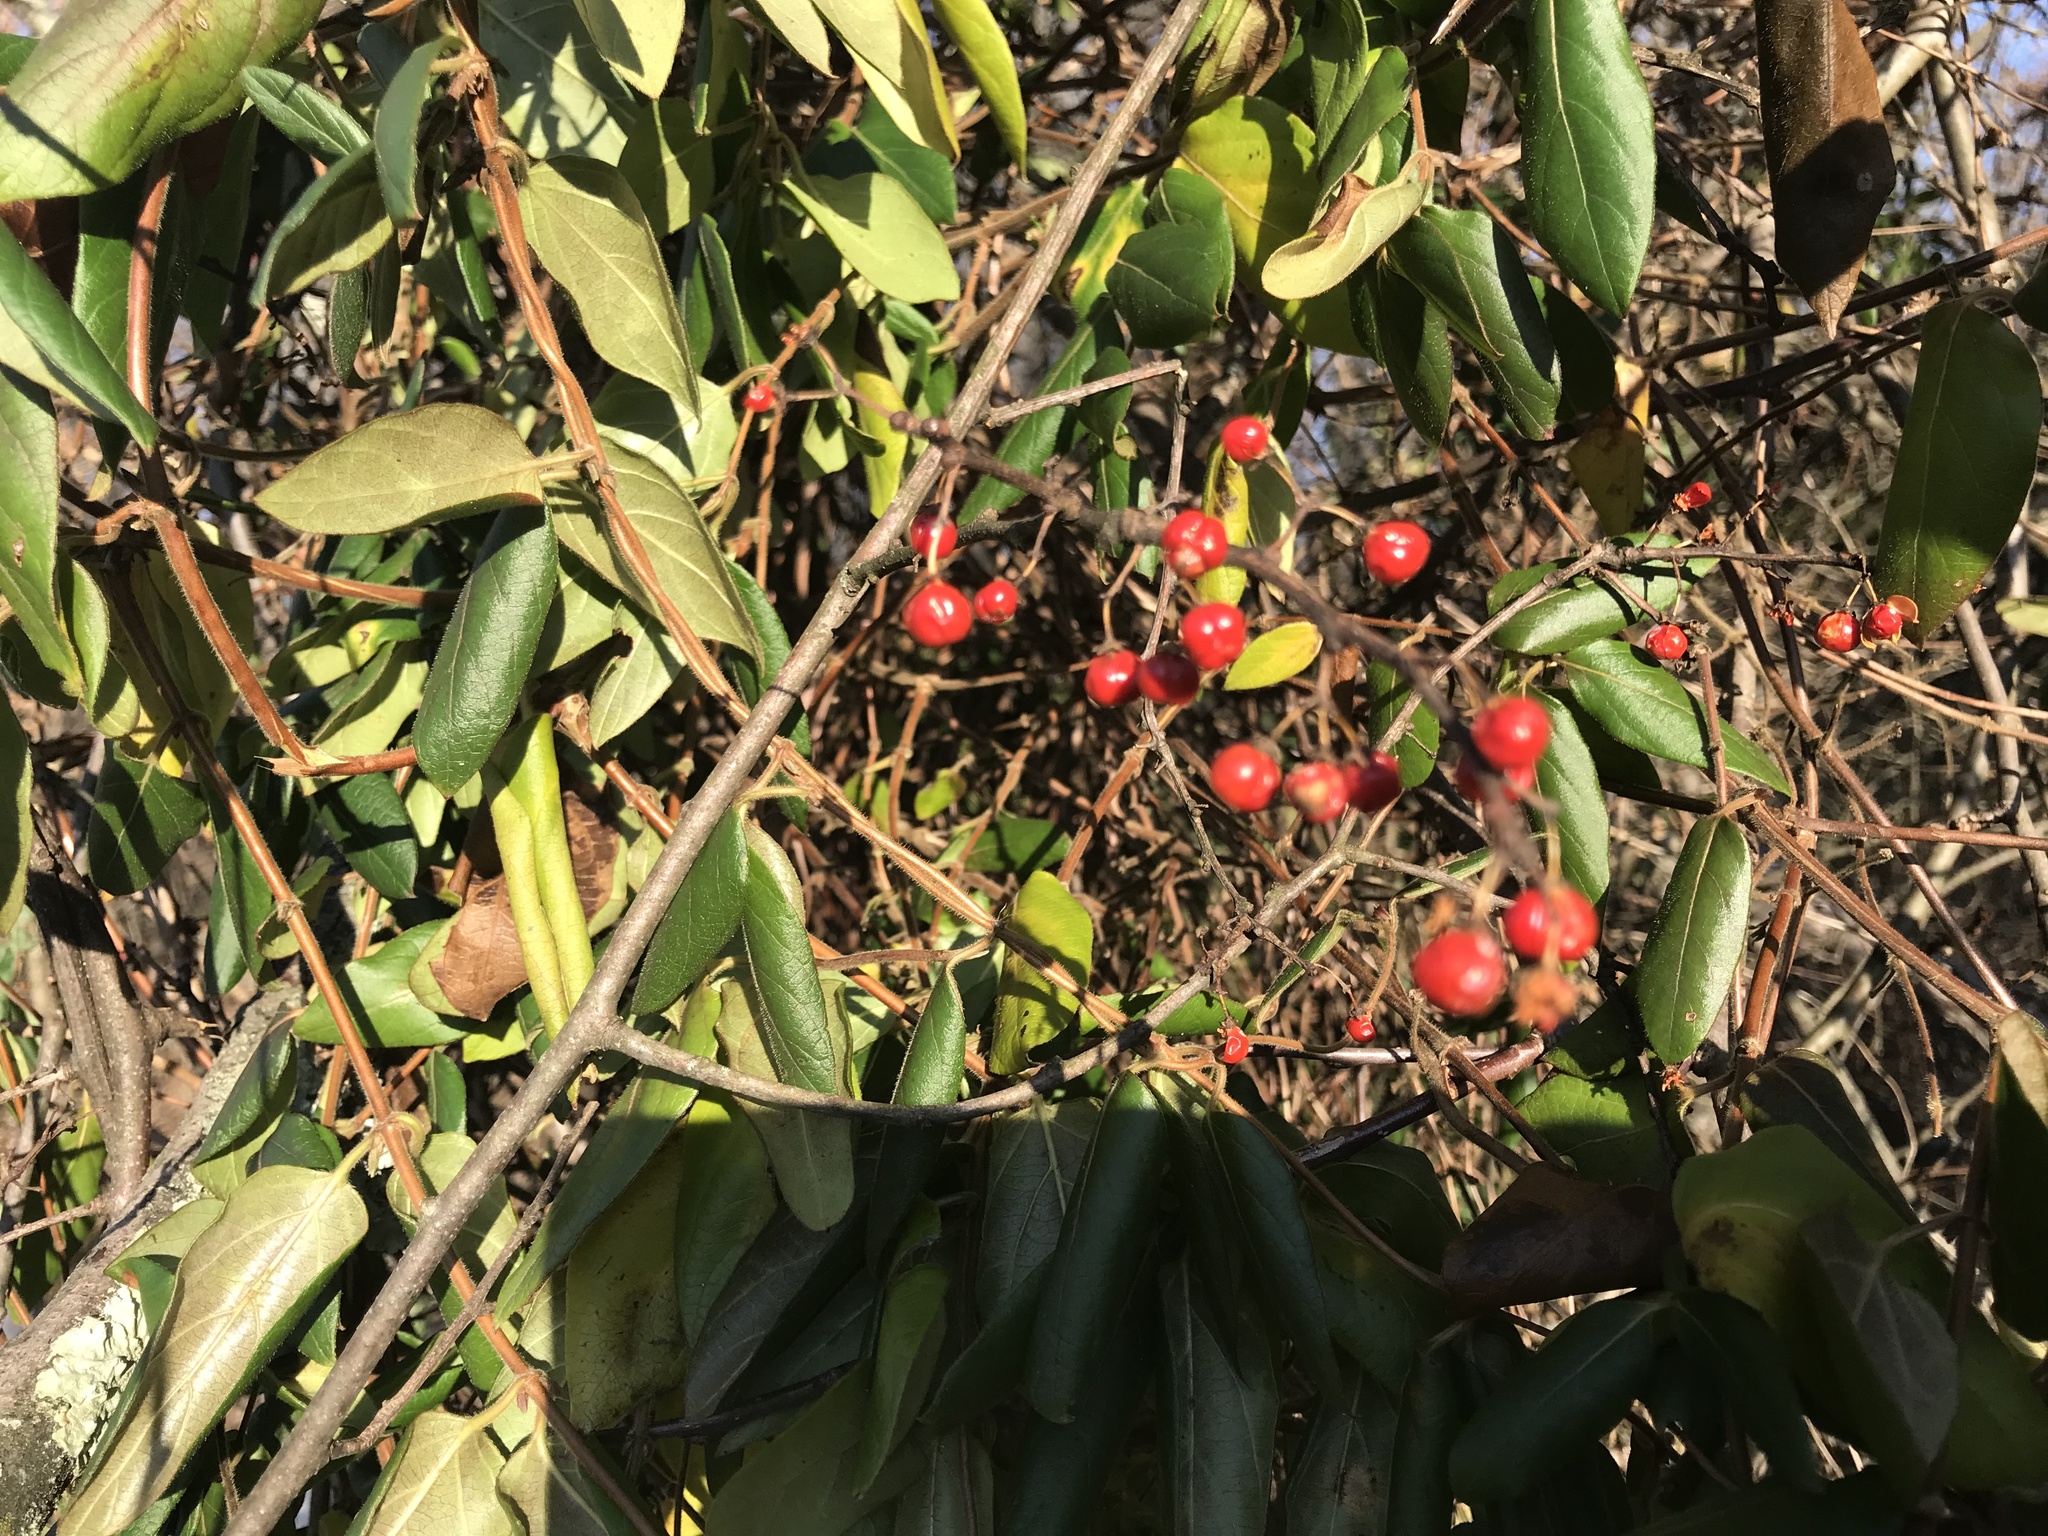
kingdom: Plantae
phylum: Tracheophyta
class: Magnoliopsida
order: Celastrales
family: Celastraceae
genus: Celastrus
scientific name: Celastrus orbiculatus
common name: Oriental bittersweet
